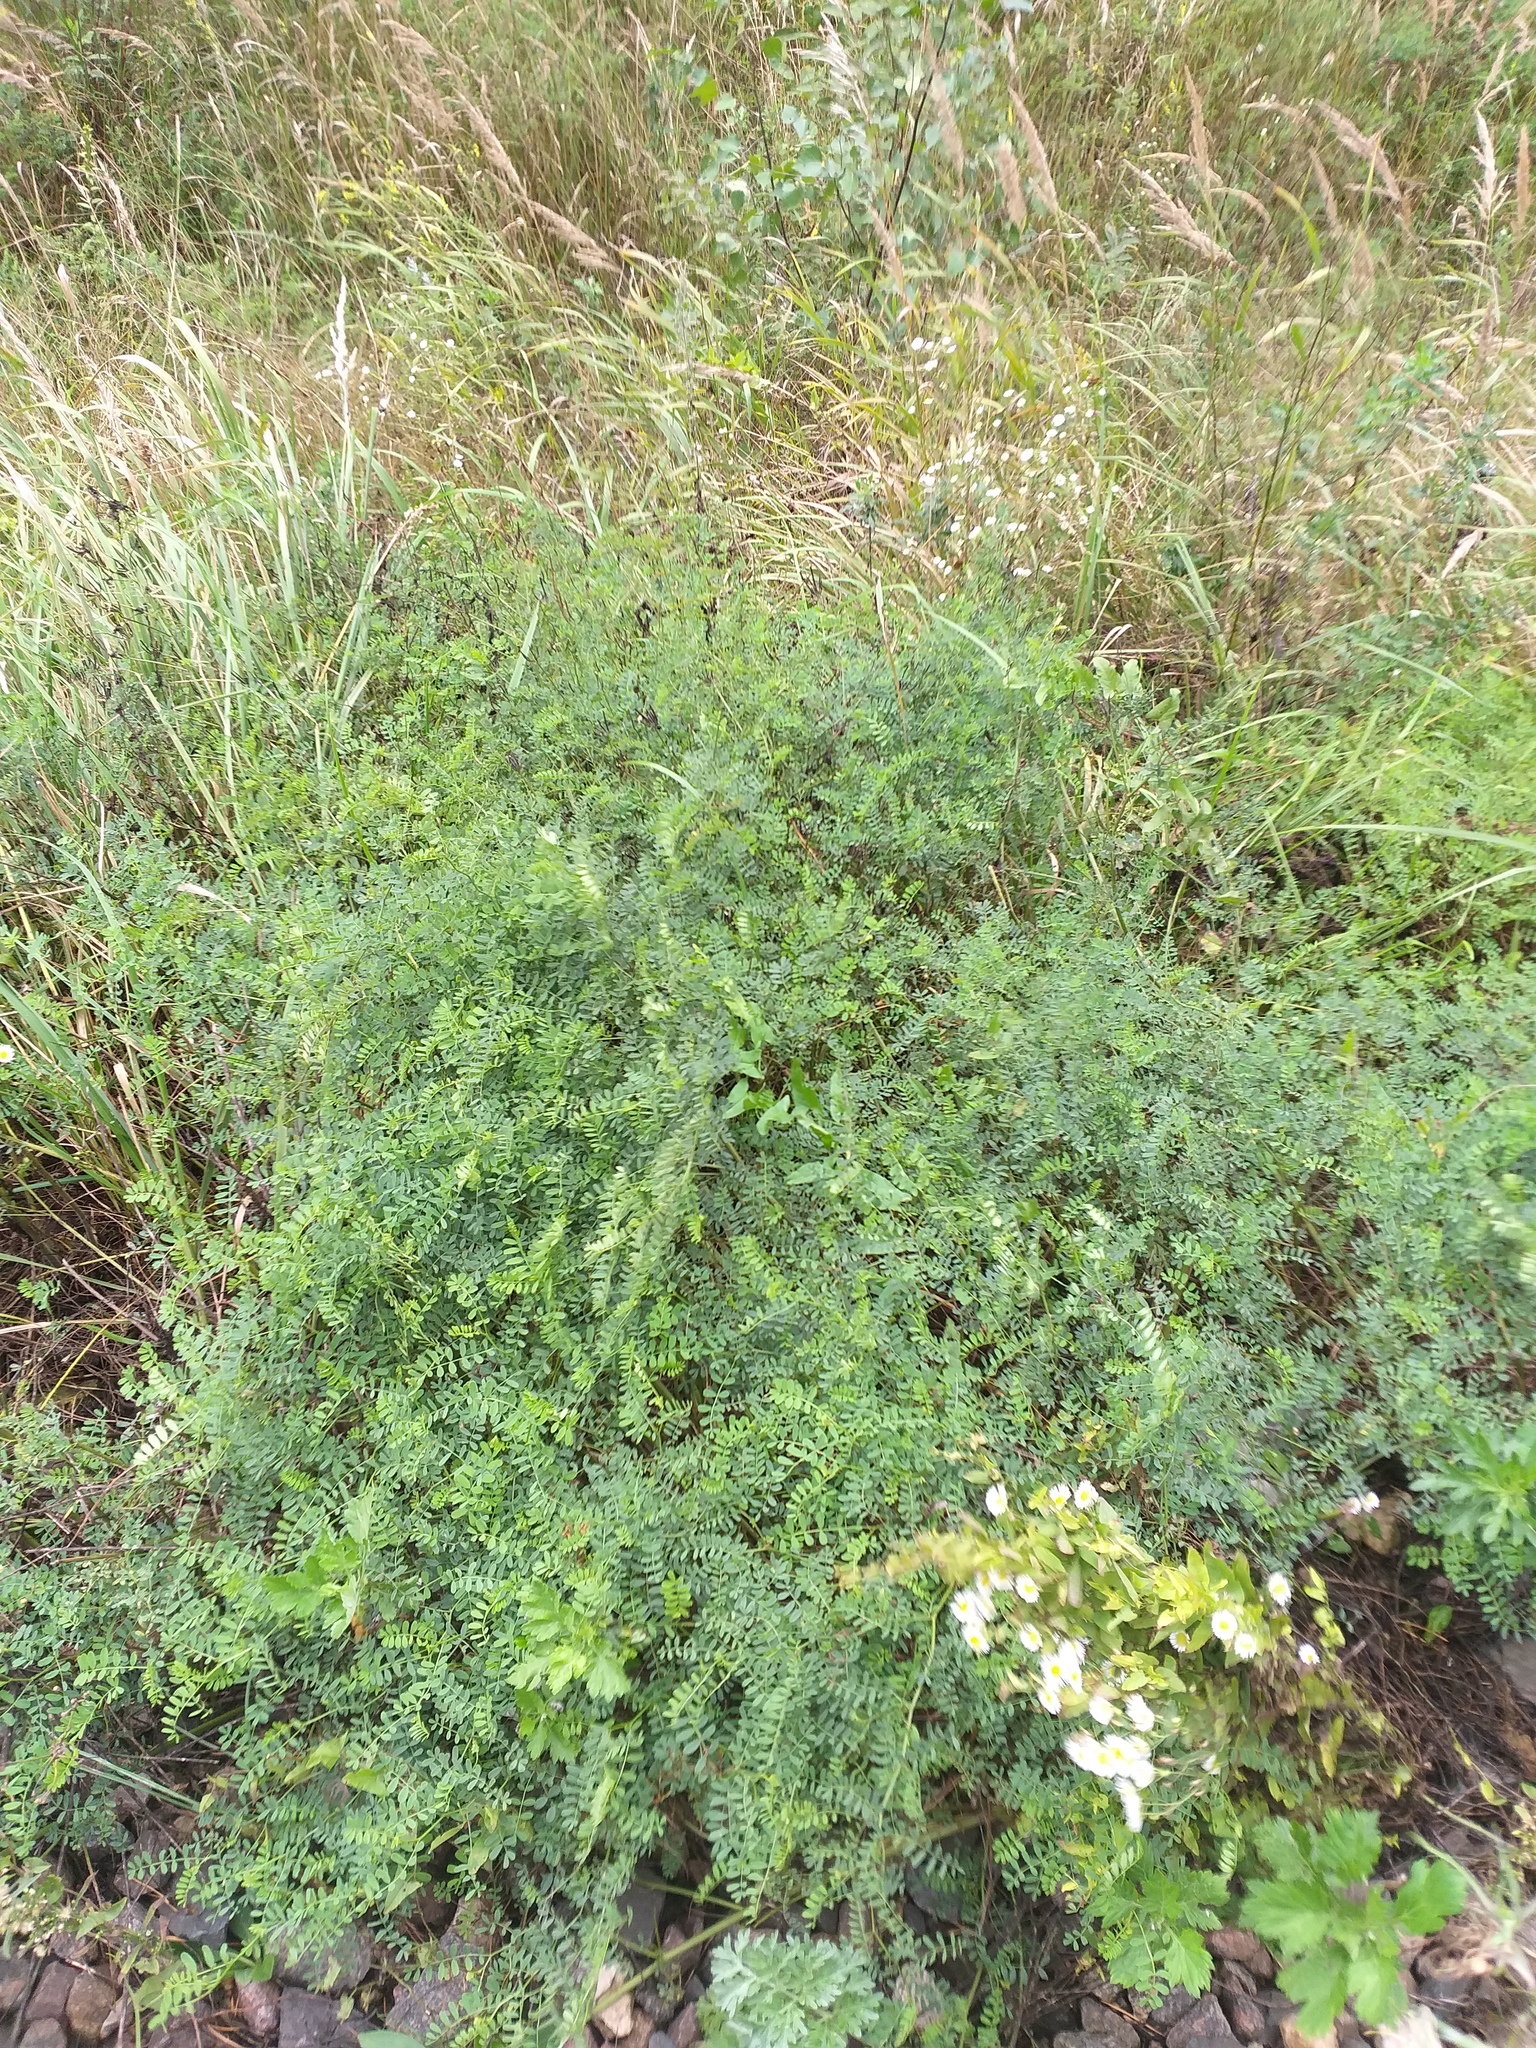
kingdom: Plantae
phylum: Tracheophyta
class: Magnoliopsida
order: Fabales
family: Fabaceae
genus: Coronilla
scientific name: Coronilla varia
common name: Crownvetch
